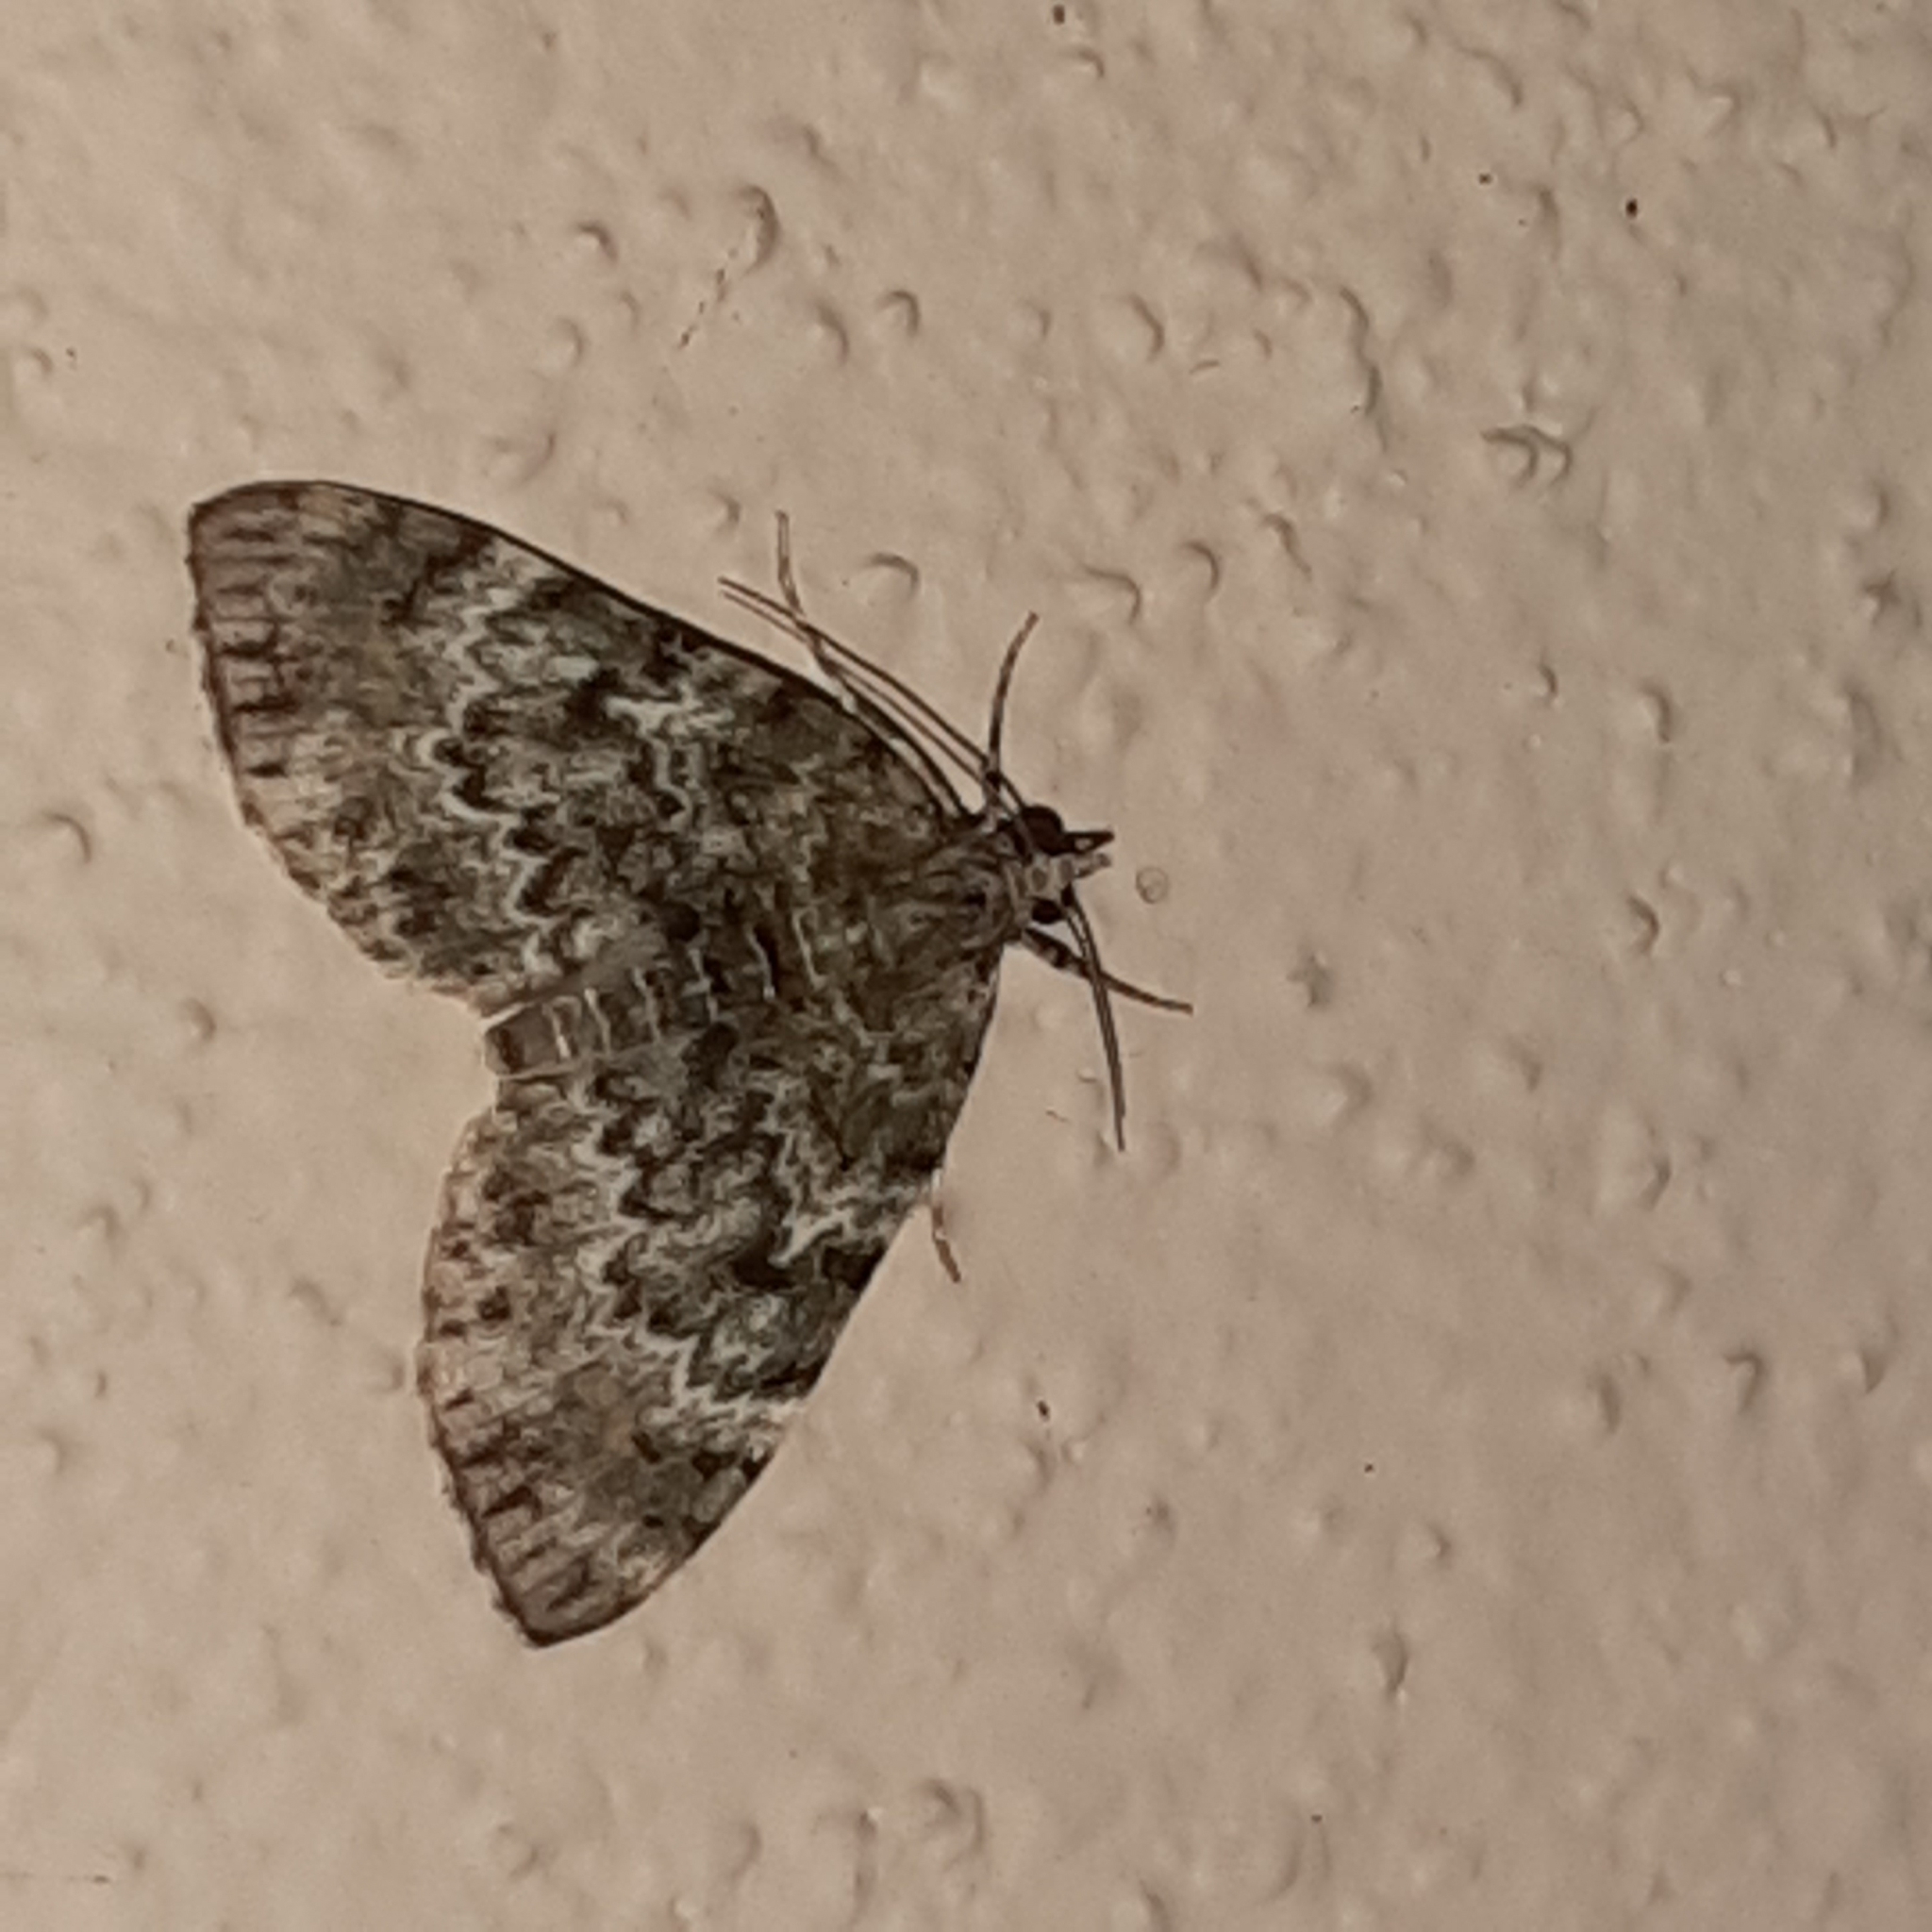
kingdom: Animalia
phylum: Arthropoda
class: Insecta
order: Lepidoptera
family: Geometridae
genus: Spargania
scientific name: Spargania cultata
